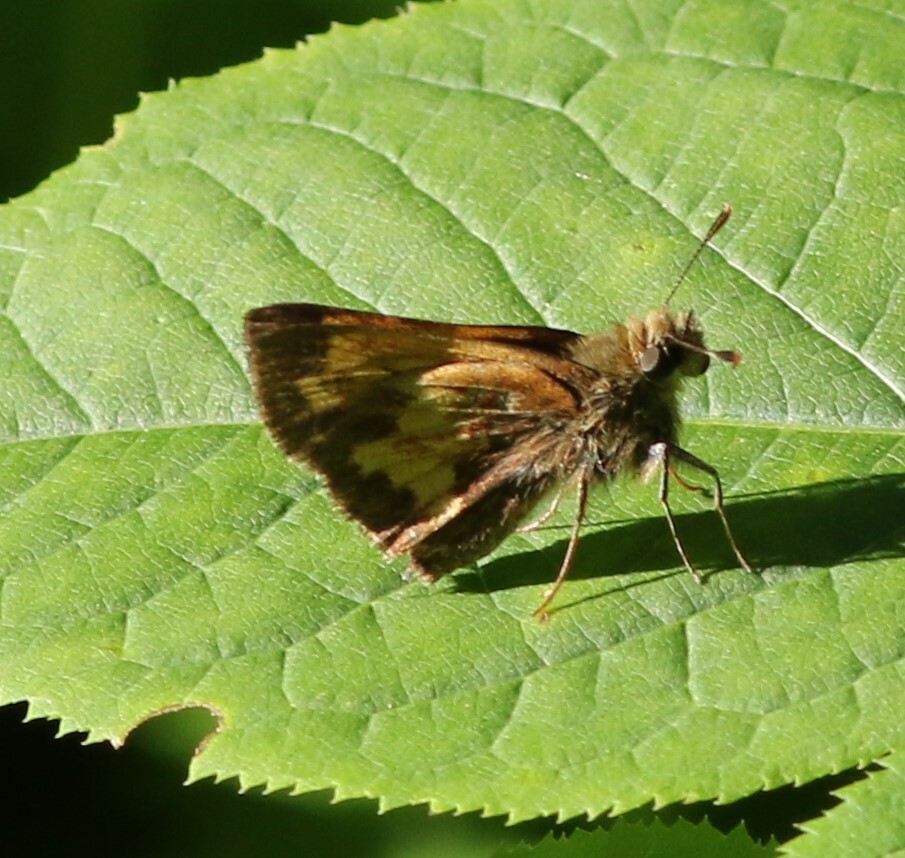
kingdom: Animalia
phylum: Arthropoda
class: Insecta
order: Lepidoptera
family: Hesperiidae
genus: Lon
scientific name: Lon hobomok
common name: Hobomok skipper
